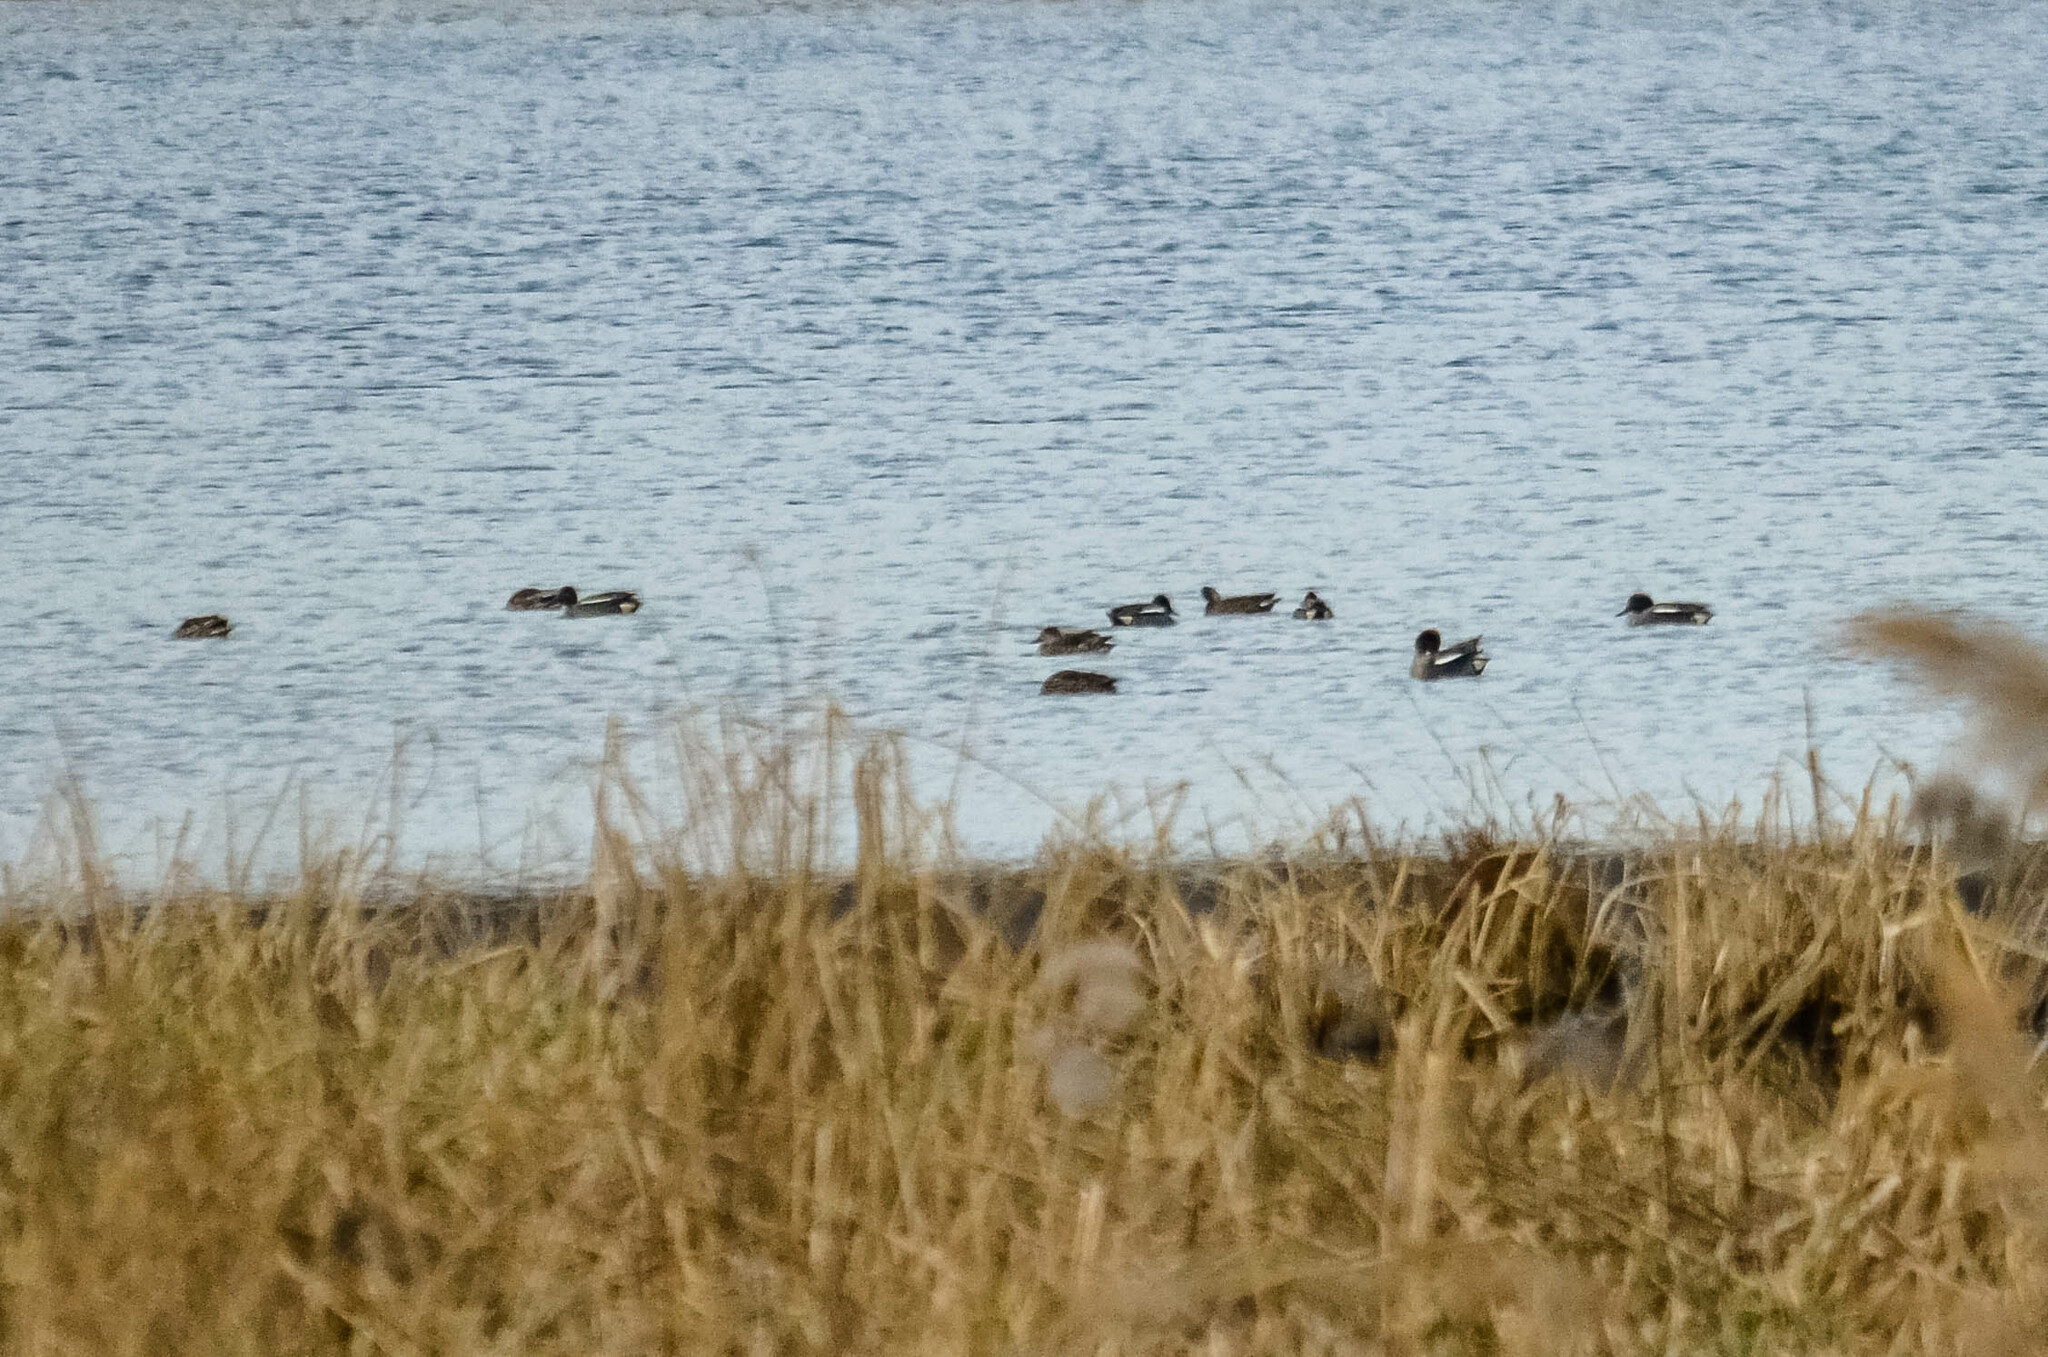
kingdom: Animalia
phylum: Chordata
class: Aves
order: Anseriformes
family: Anatidae
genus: Anas
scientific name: Anas crecca
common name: Eurasian teal
